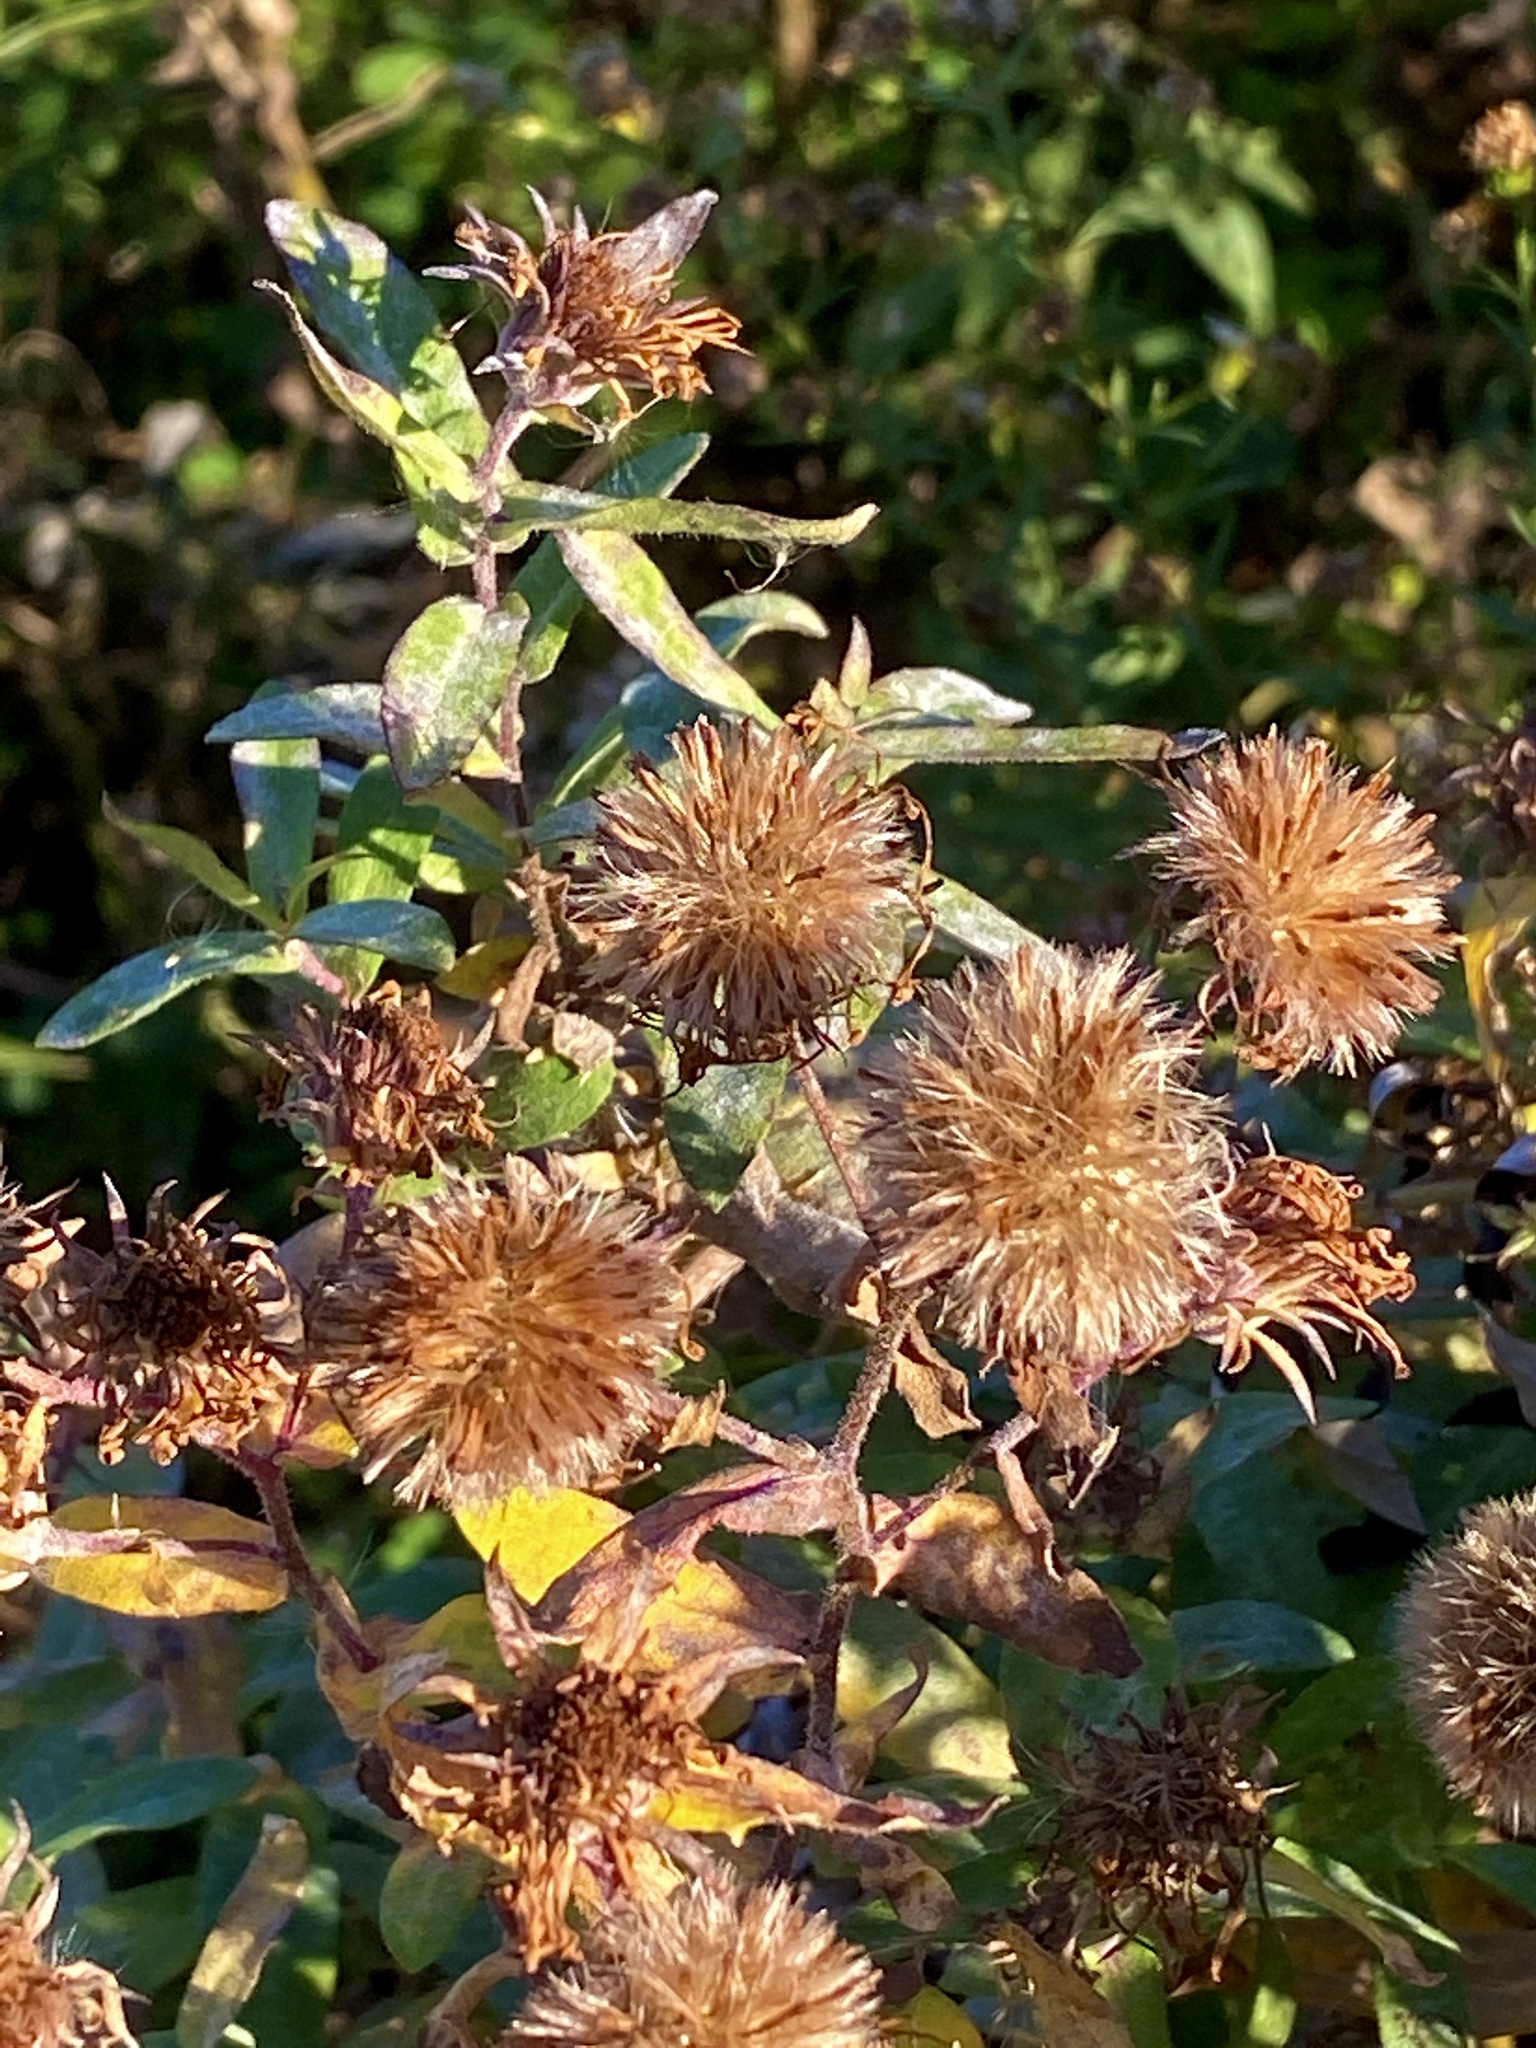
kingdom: Plantae
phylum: Tracheophyta
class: Magnoliopsida
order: Asterales
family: Asteraceae
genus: Symphyotrichum
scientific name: Symphyotrichum novae-angliae
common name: Michaelmas daisy
